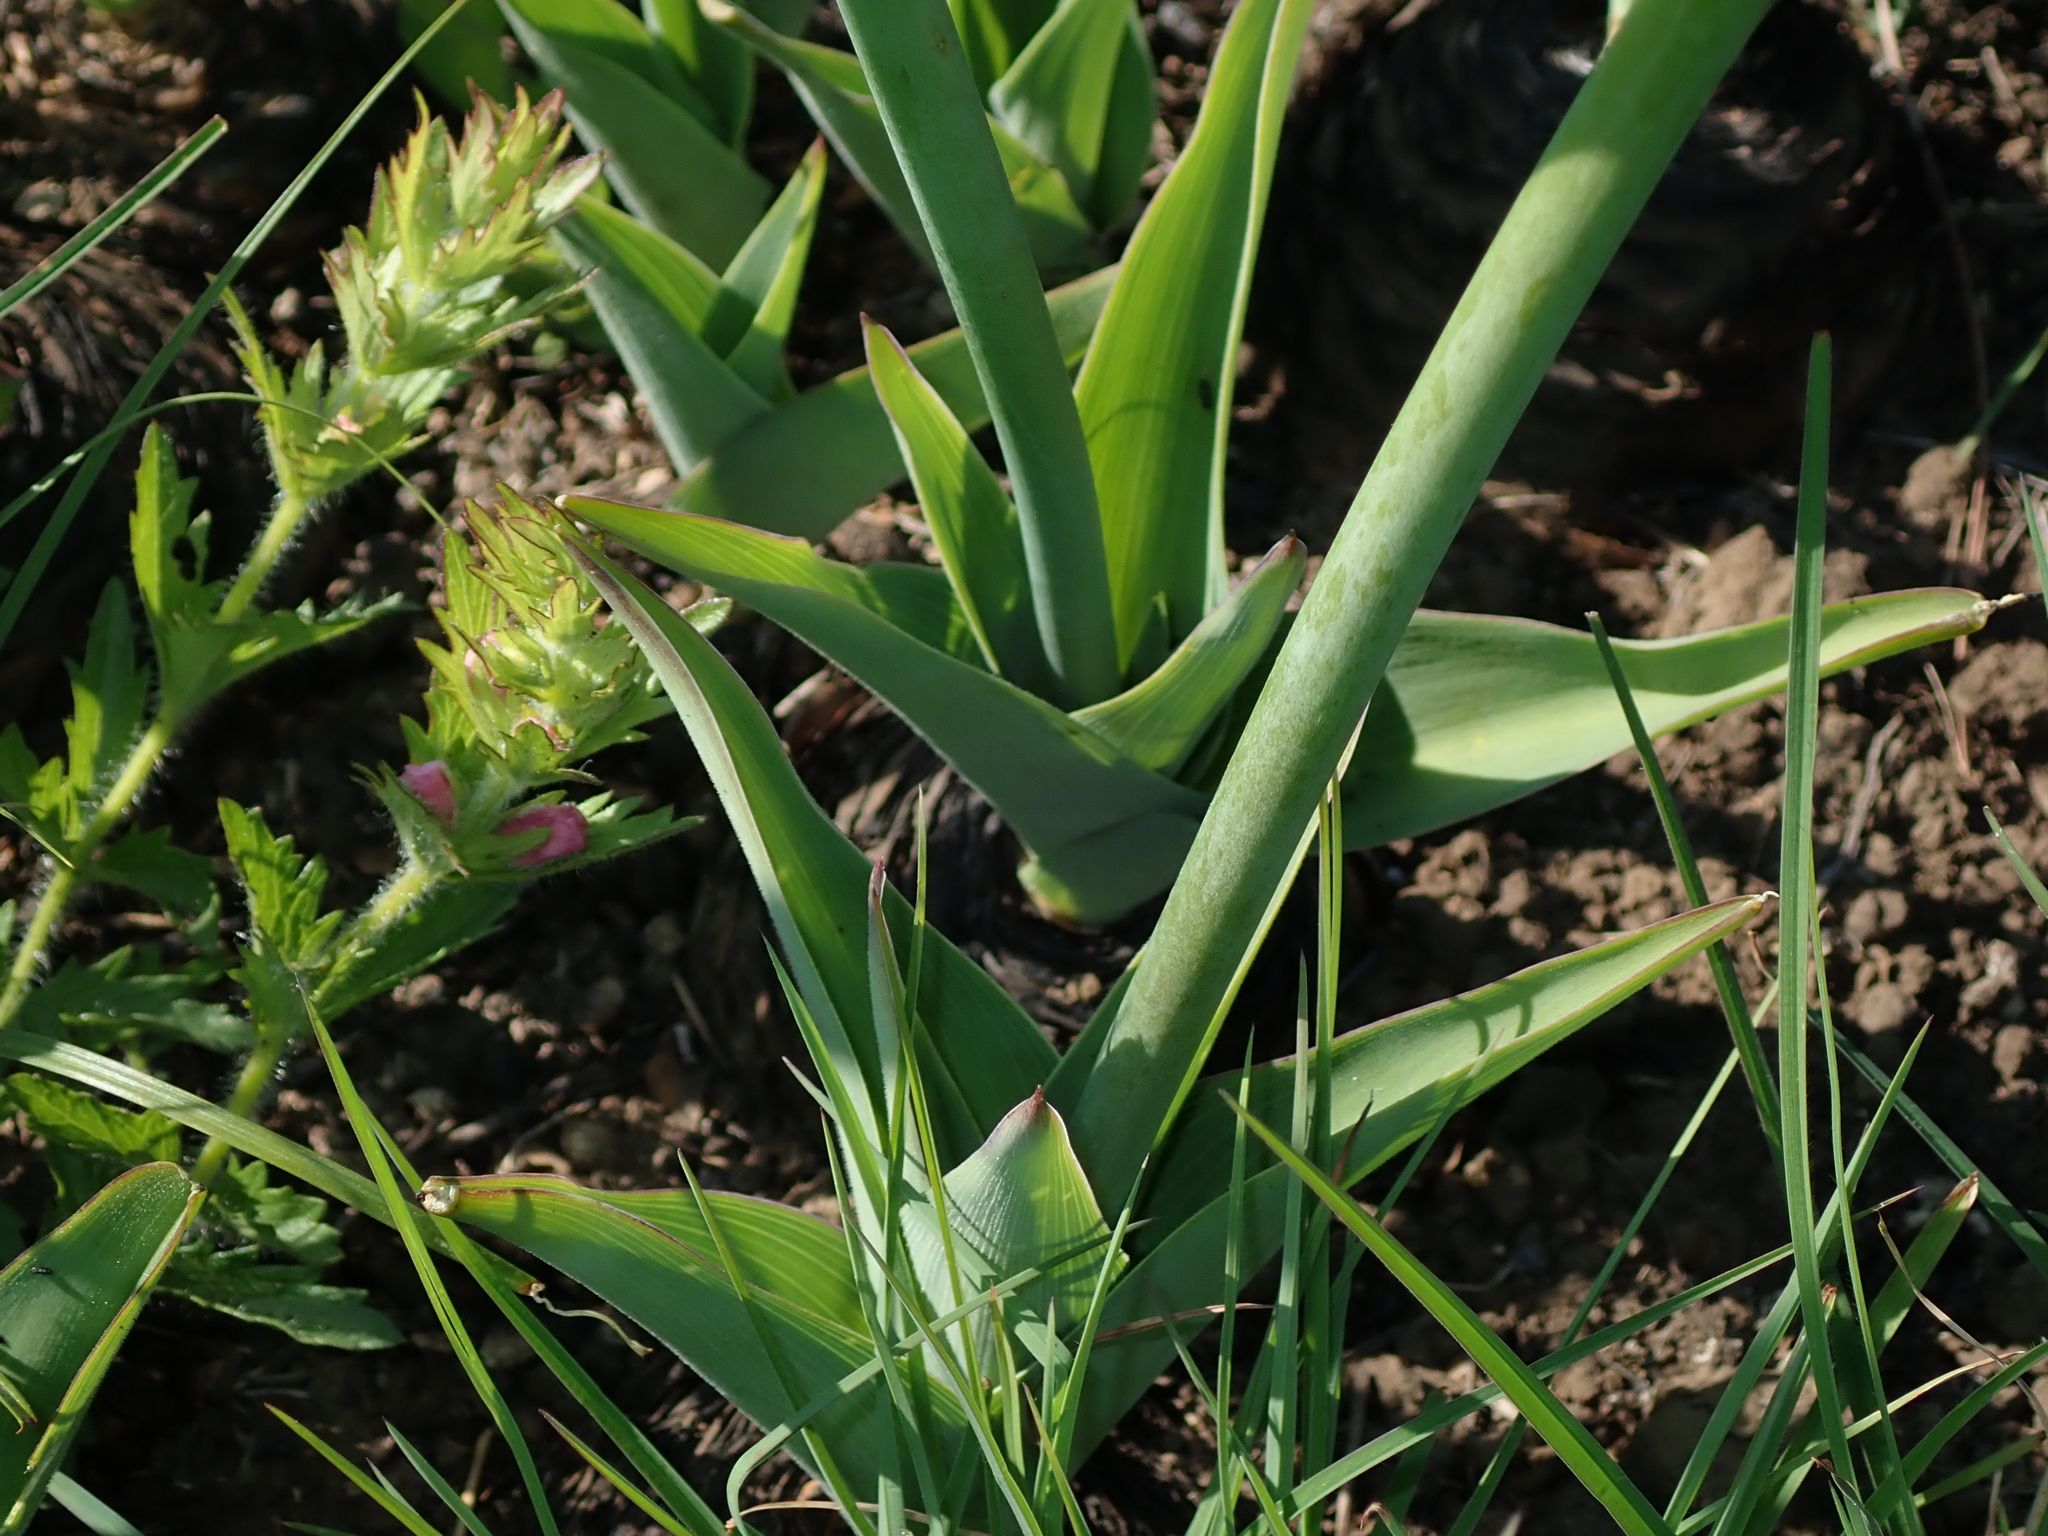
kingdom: Plantae
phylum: Tracheophyta
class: Liliopsida
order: Asparagales
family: Asparagaceae
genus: Merwilla
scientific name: Merwilla plumbea
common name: Blue-squill
